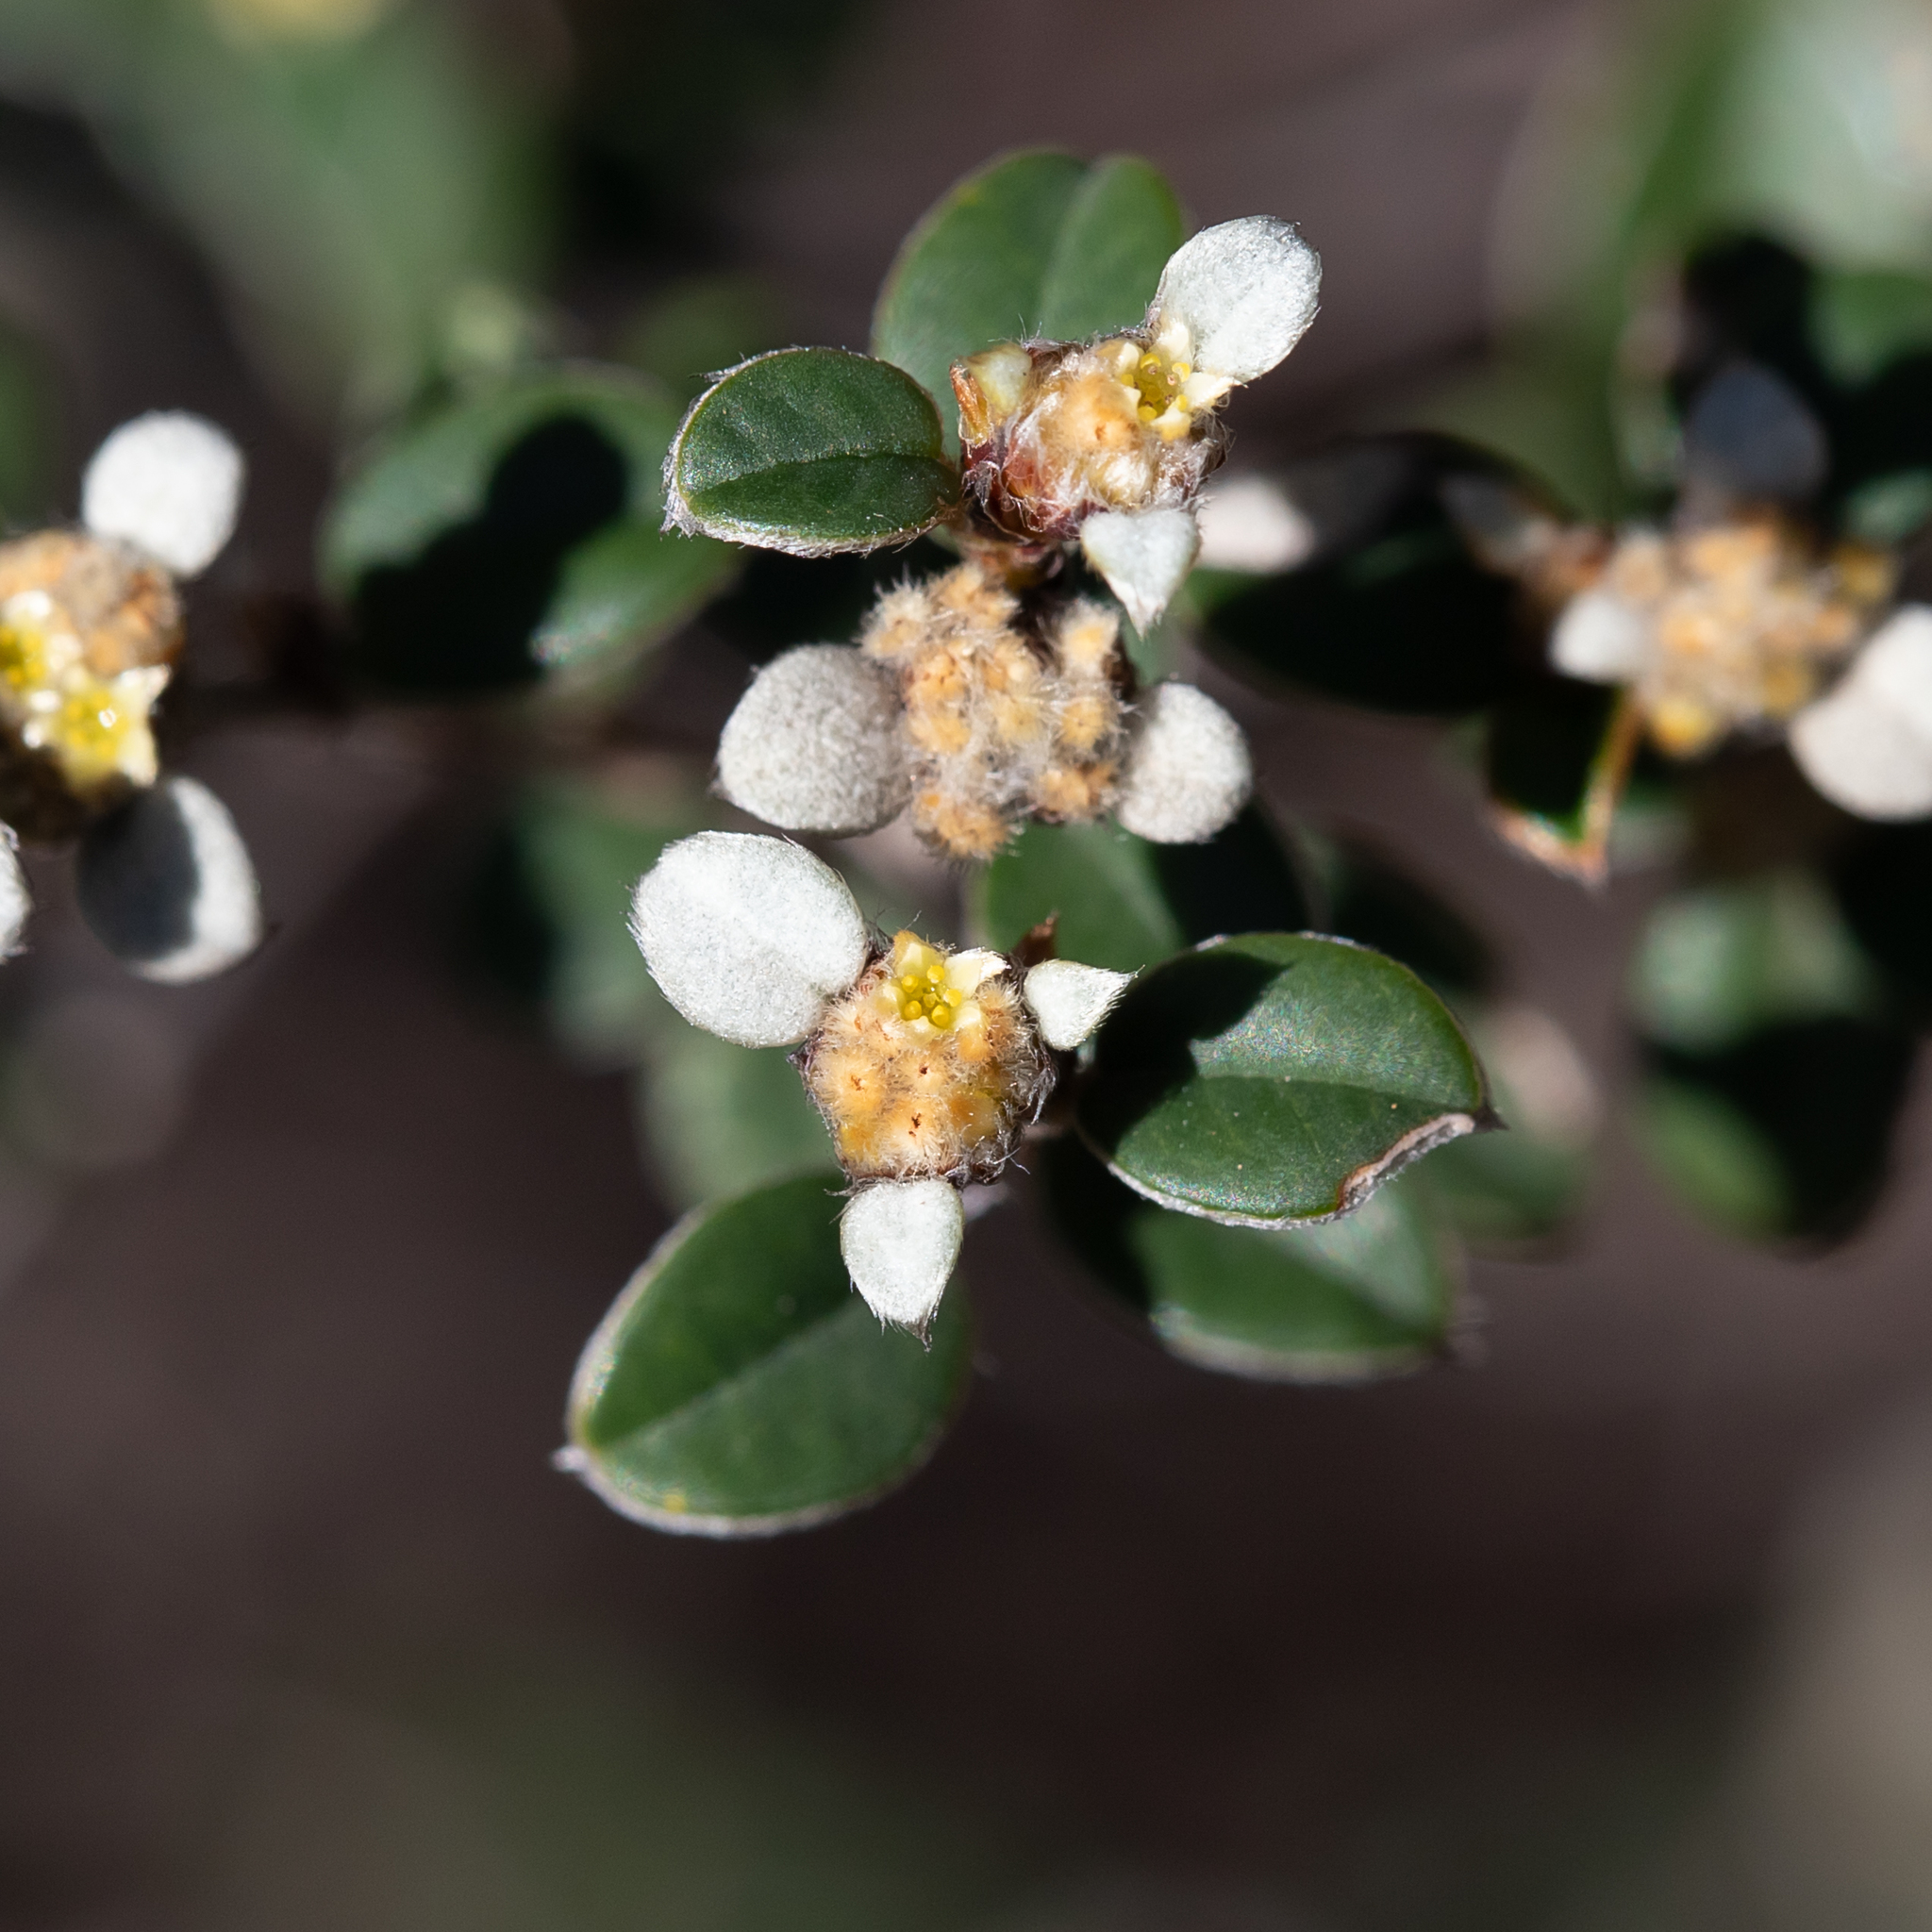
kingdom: Plantae
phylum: Tracheophyta
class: Magnoliopsida
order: Rosales
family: Rhamnaceae
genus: Spyridium
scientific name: Spyridium thymifolium
